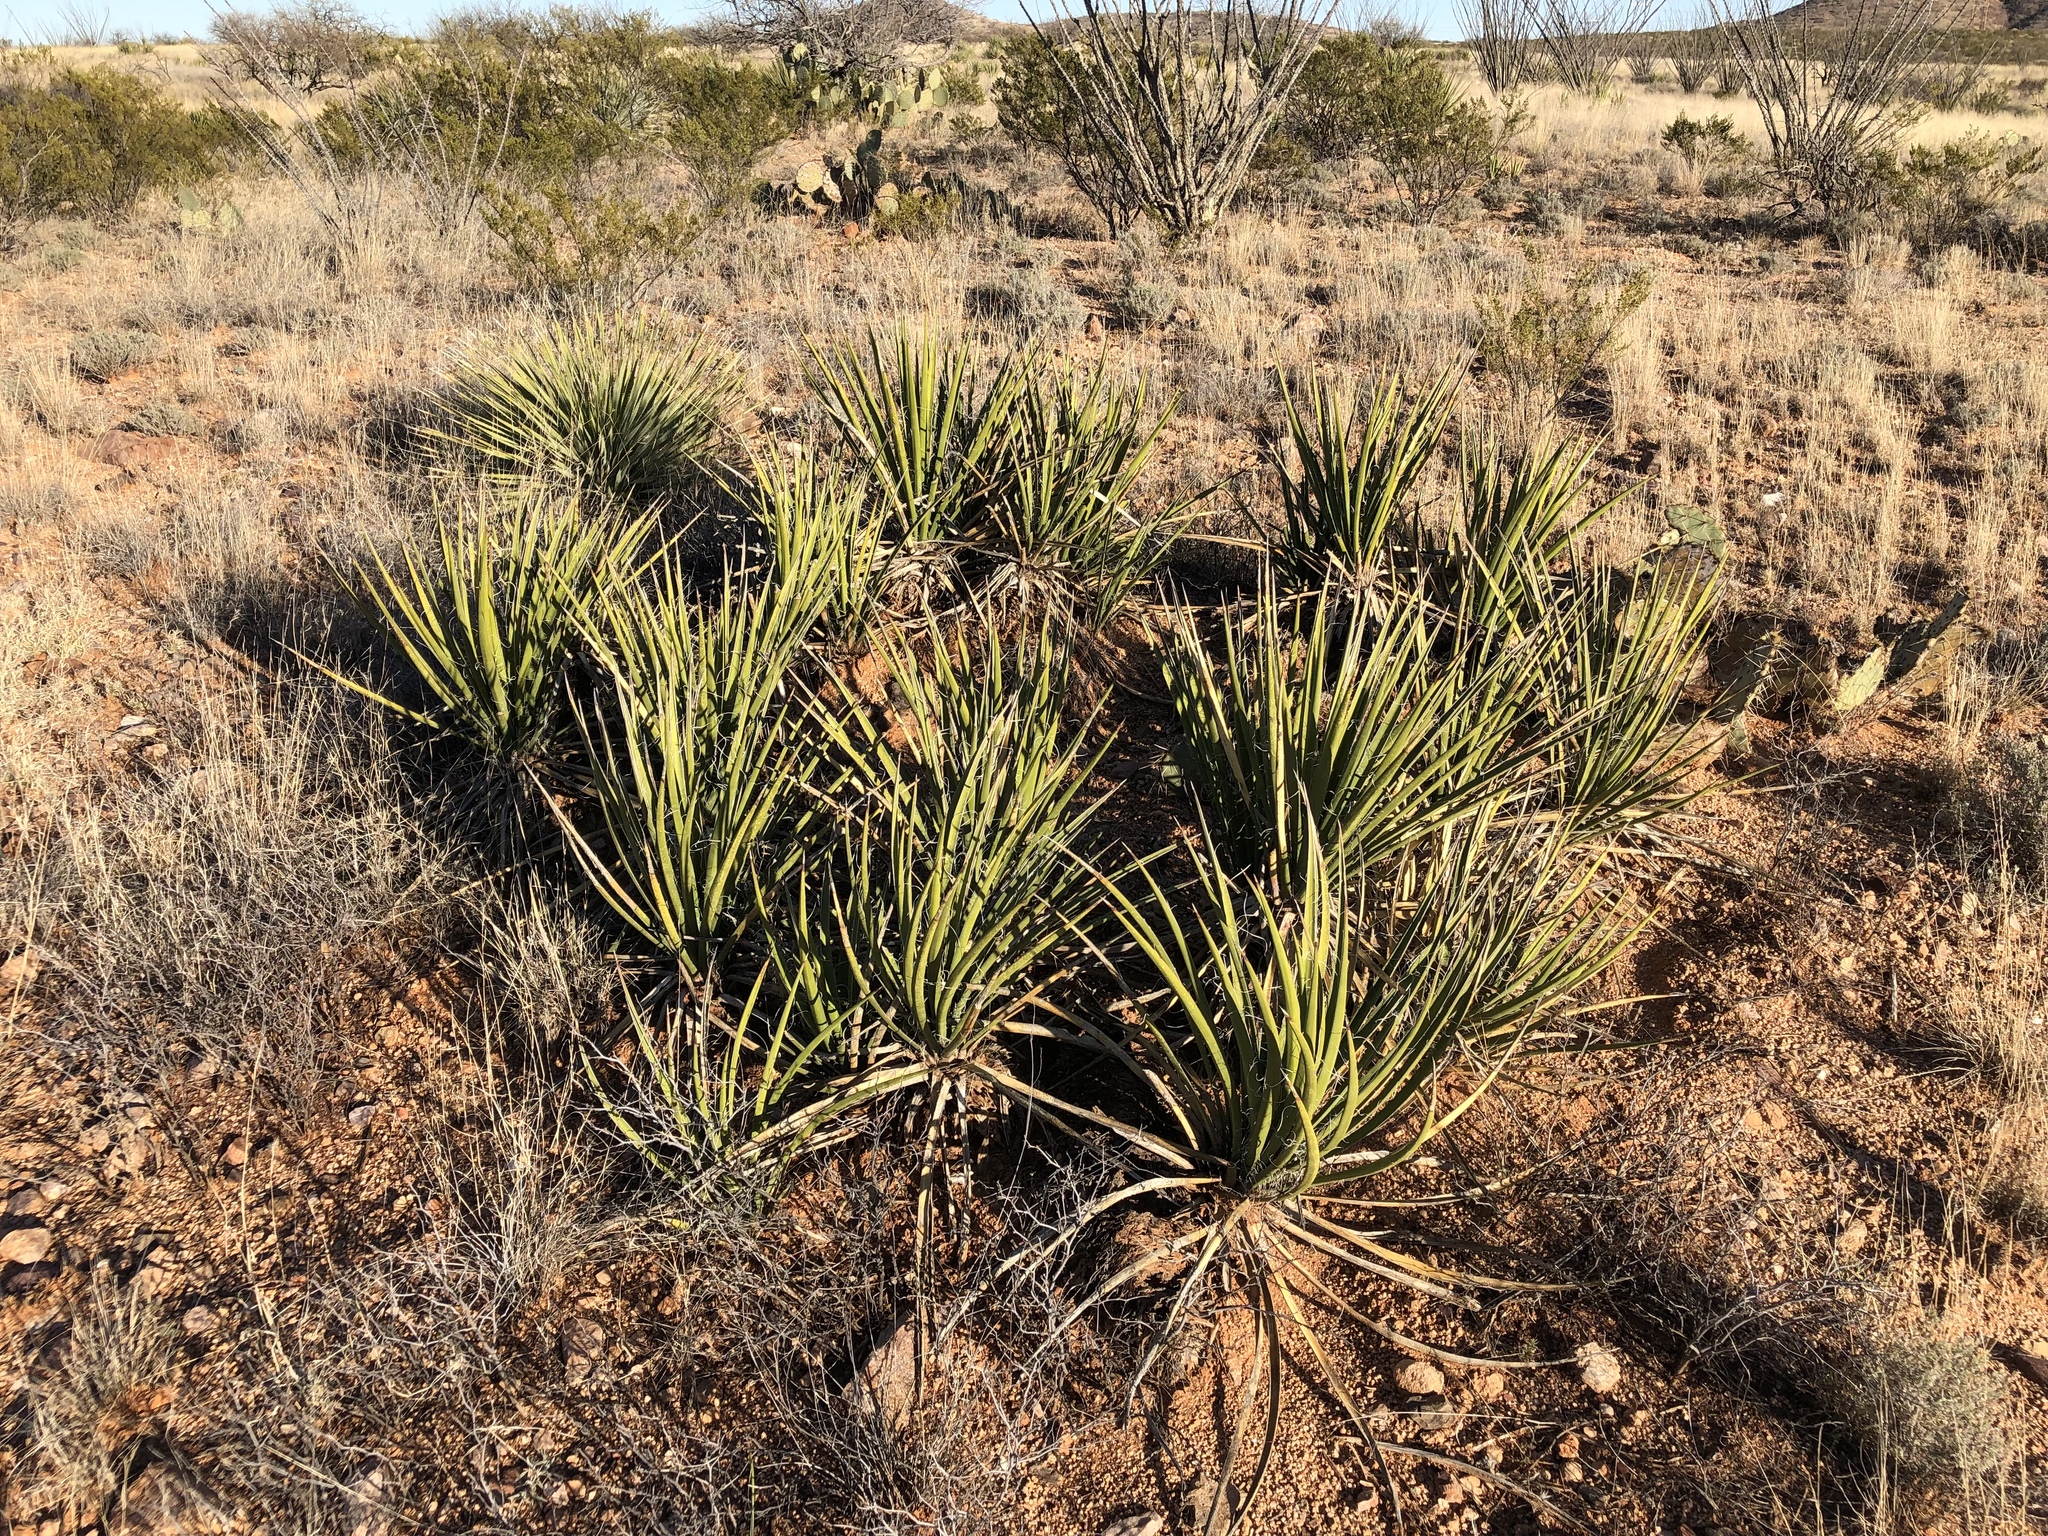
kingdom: Plantae
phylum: Tracheophyta
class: Liliopsida
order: Asparagales
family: Asparagaceae
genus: Yucca
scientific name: Yucca baccata
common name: Banana yucca
